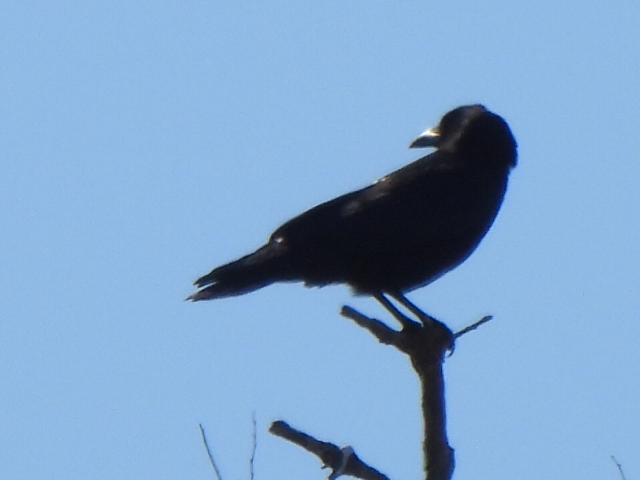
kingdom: Animalia
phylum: Chordata
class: Aves
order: Passeriformes
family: Corvidae
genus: Corvus
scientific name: Corvus brachyrhynchos
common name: American crow
